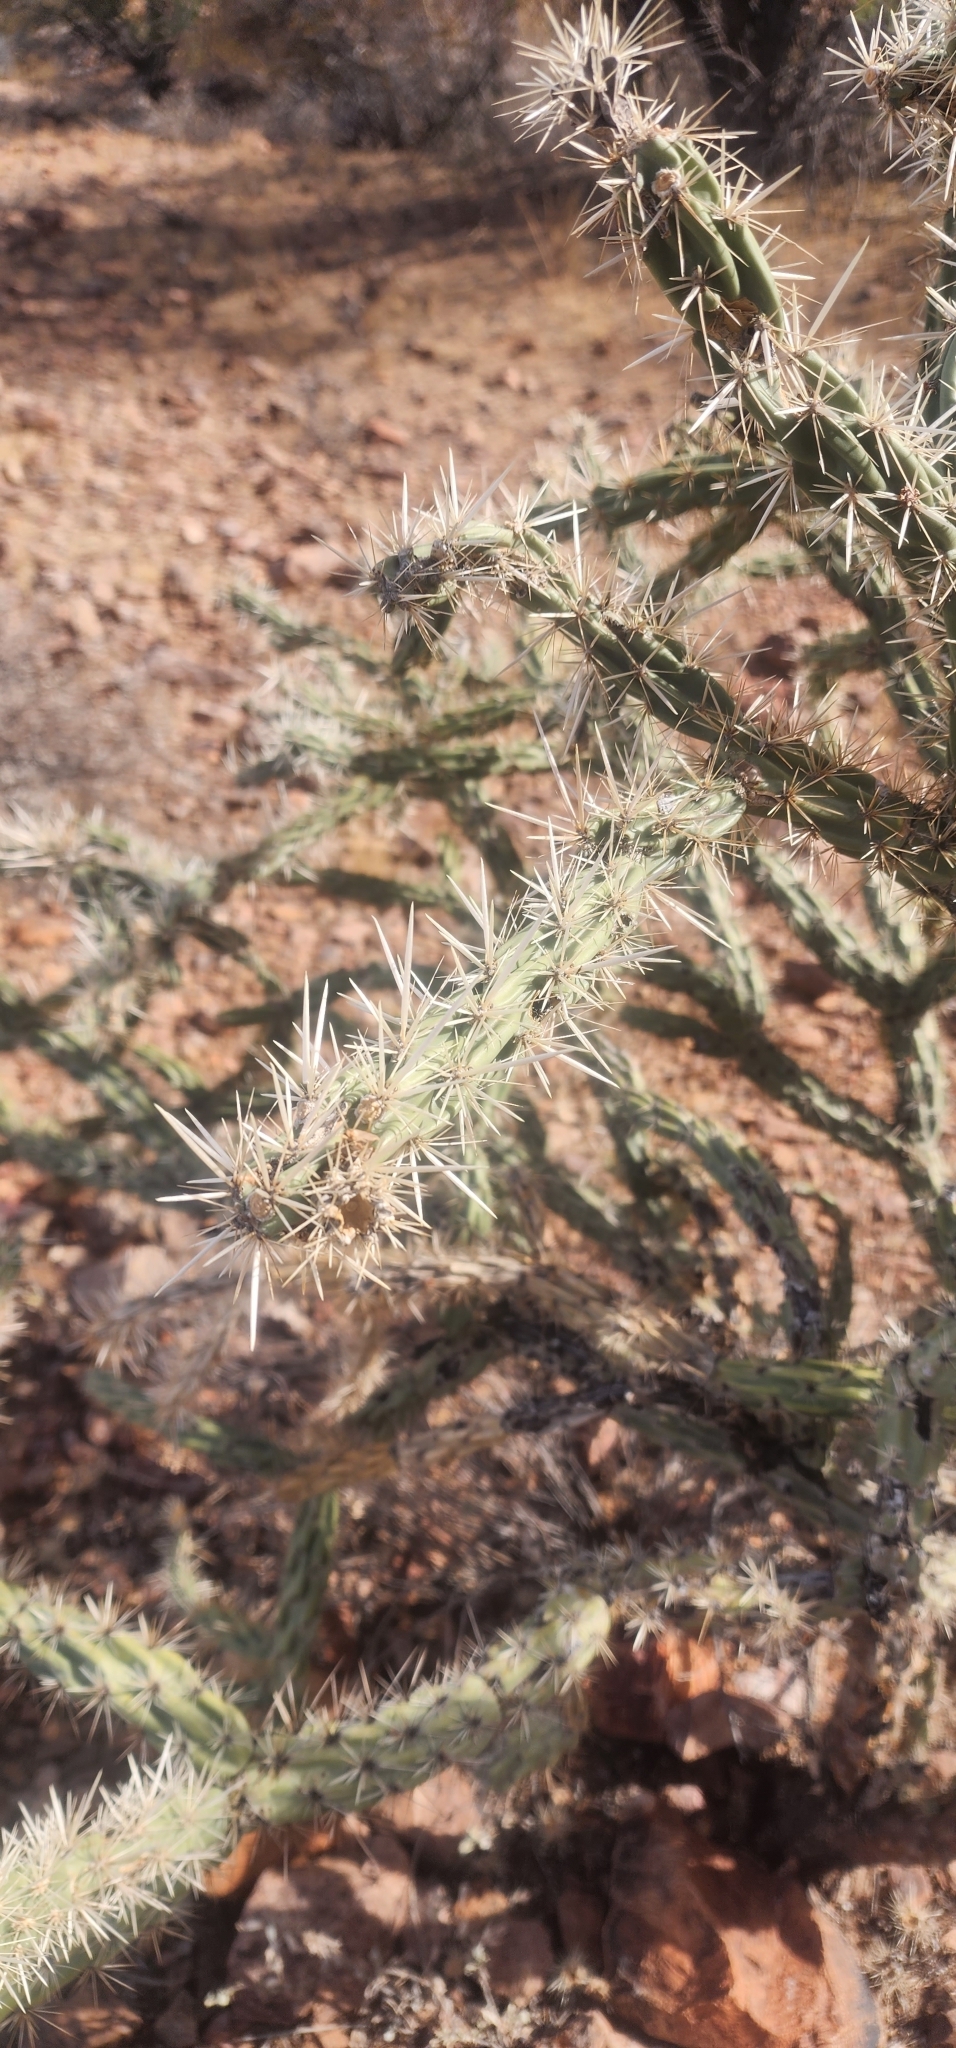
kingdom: Plantae
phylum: Tracheophyta
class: Magnoliopsida
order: Caryophyllales
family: Cactaceae
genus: Cylindropuntia
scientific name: Cylindropuntia acanthocarpa
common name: Buckhorn cholla
